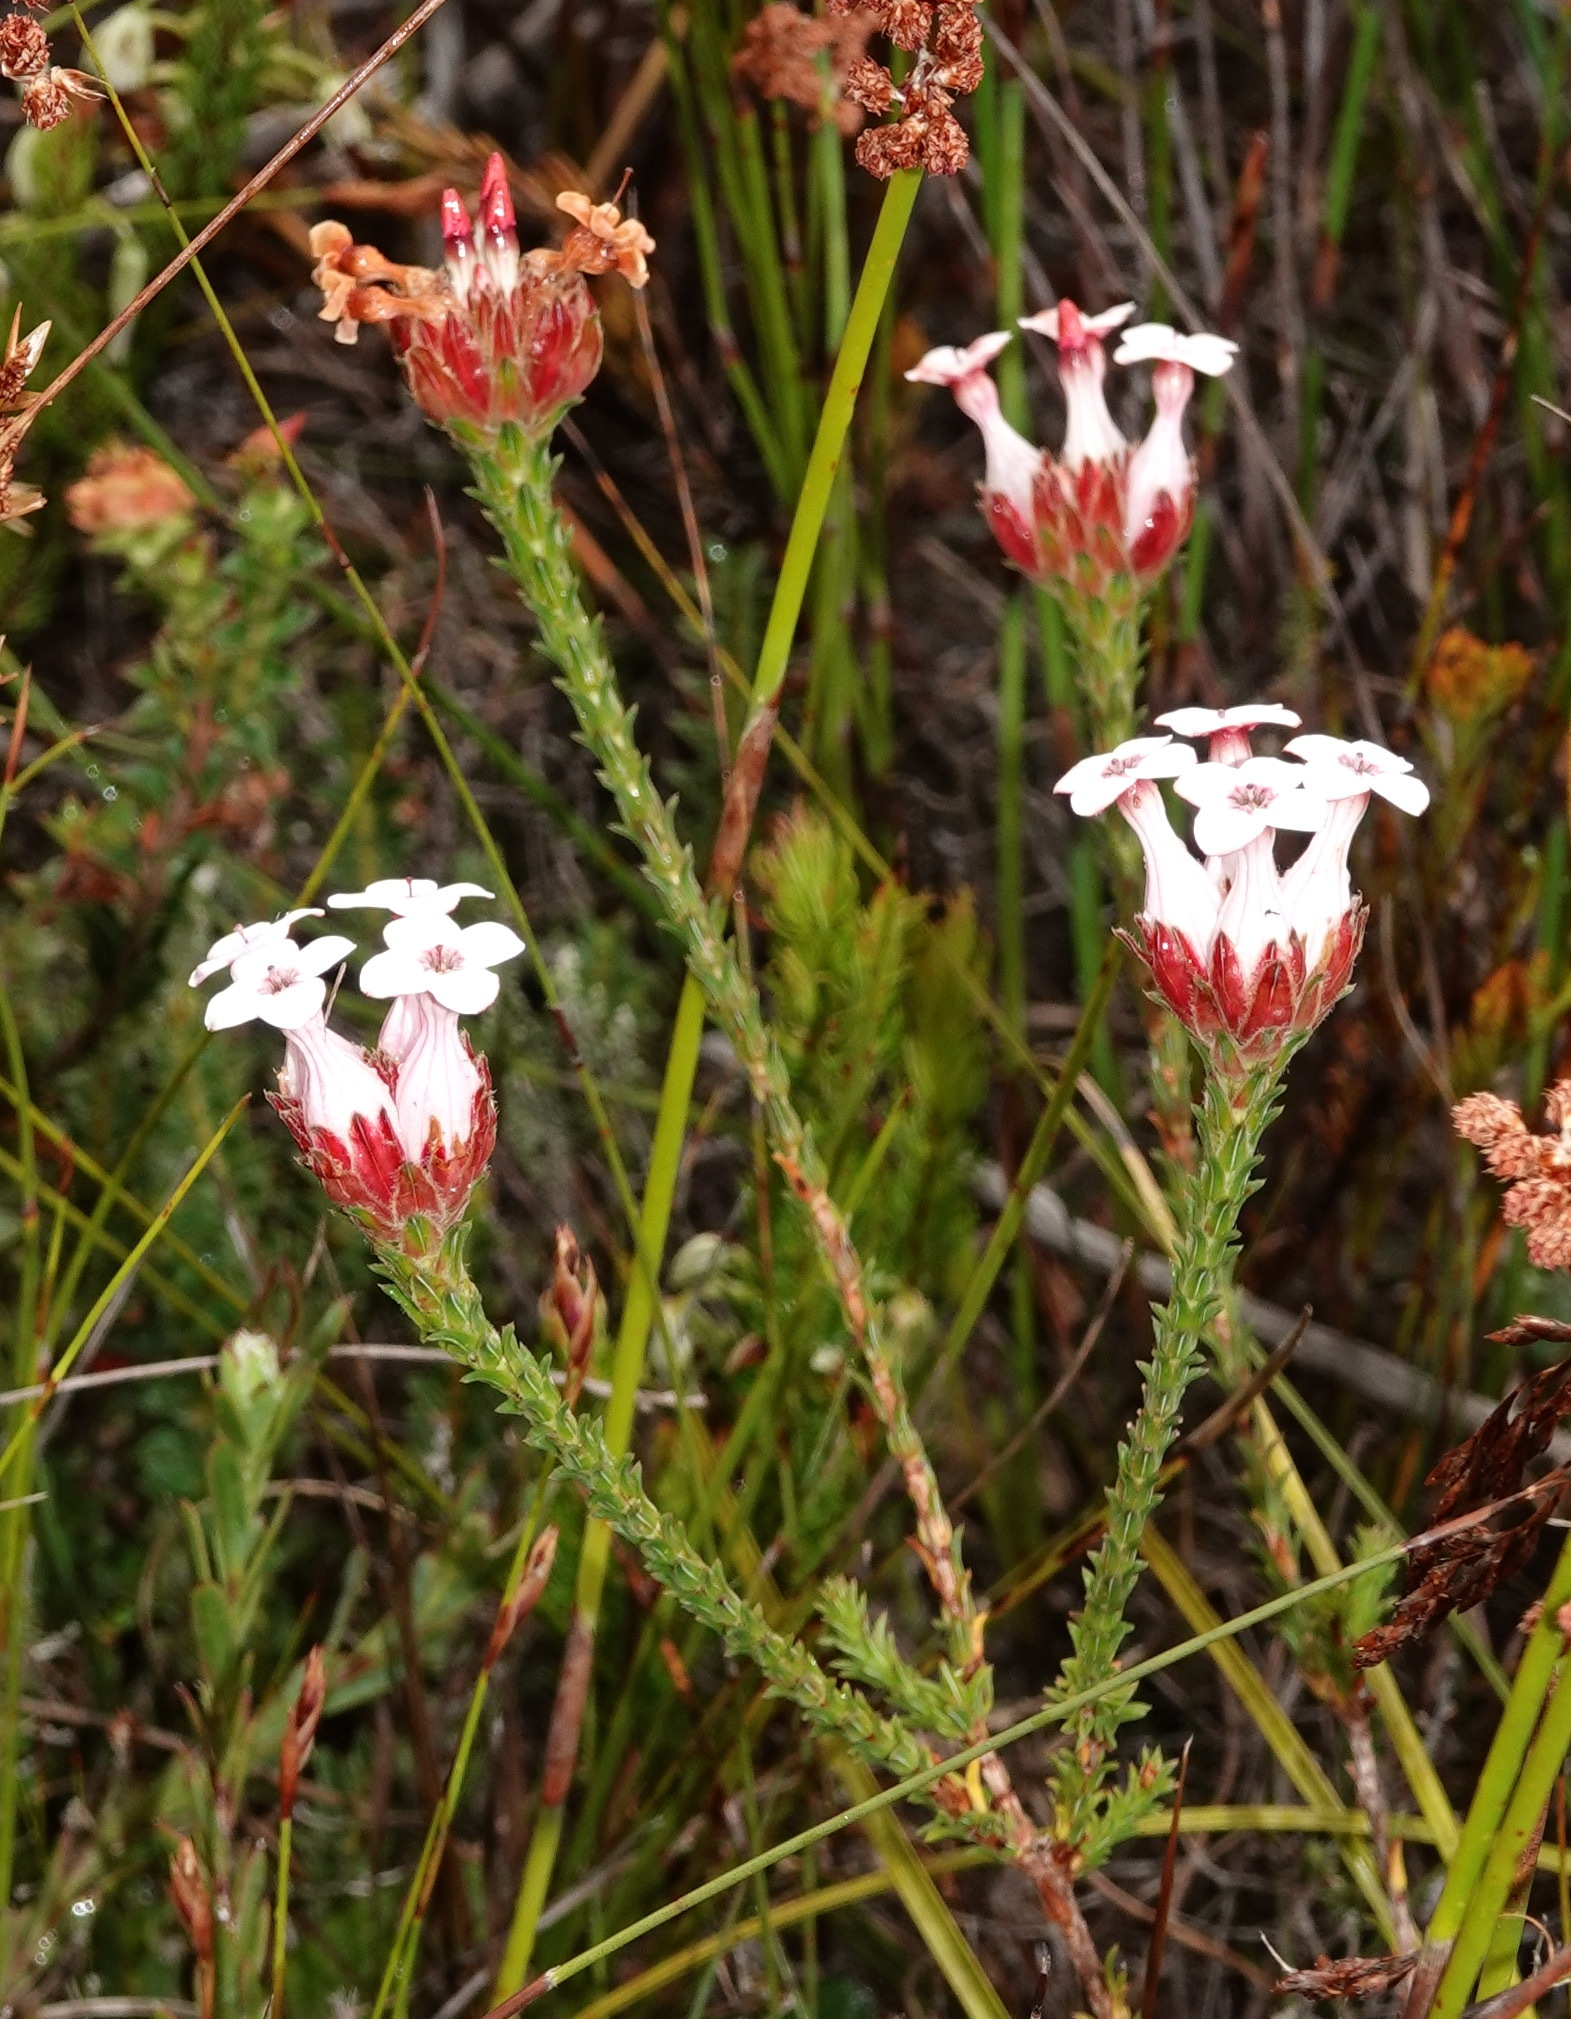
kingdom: Plantae
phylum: Tracheophyta
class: Magnoliopsida
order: Ericales
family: Ericaceae
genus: Erica
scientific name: Erica ampullacea
